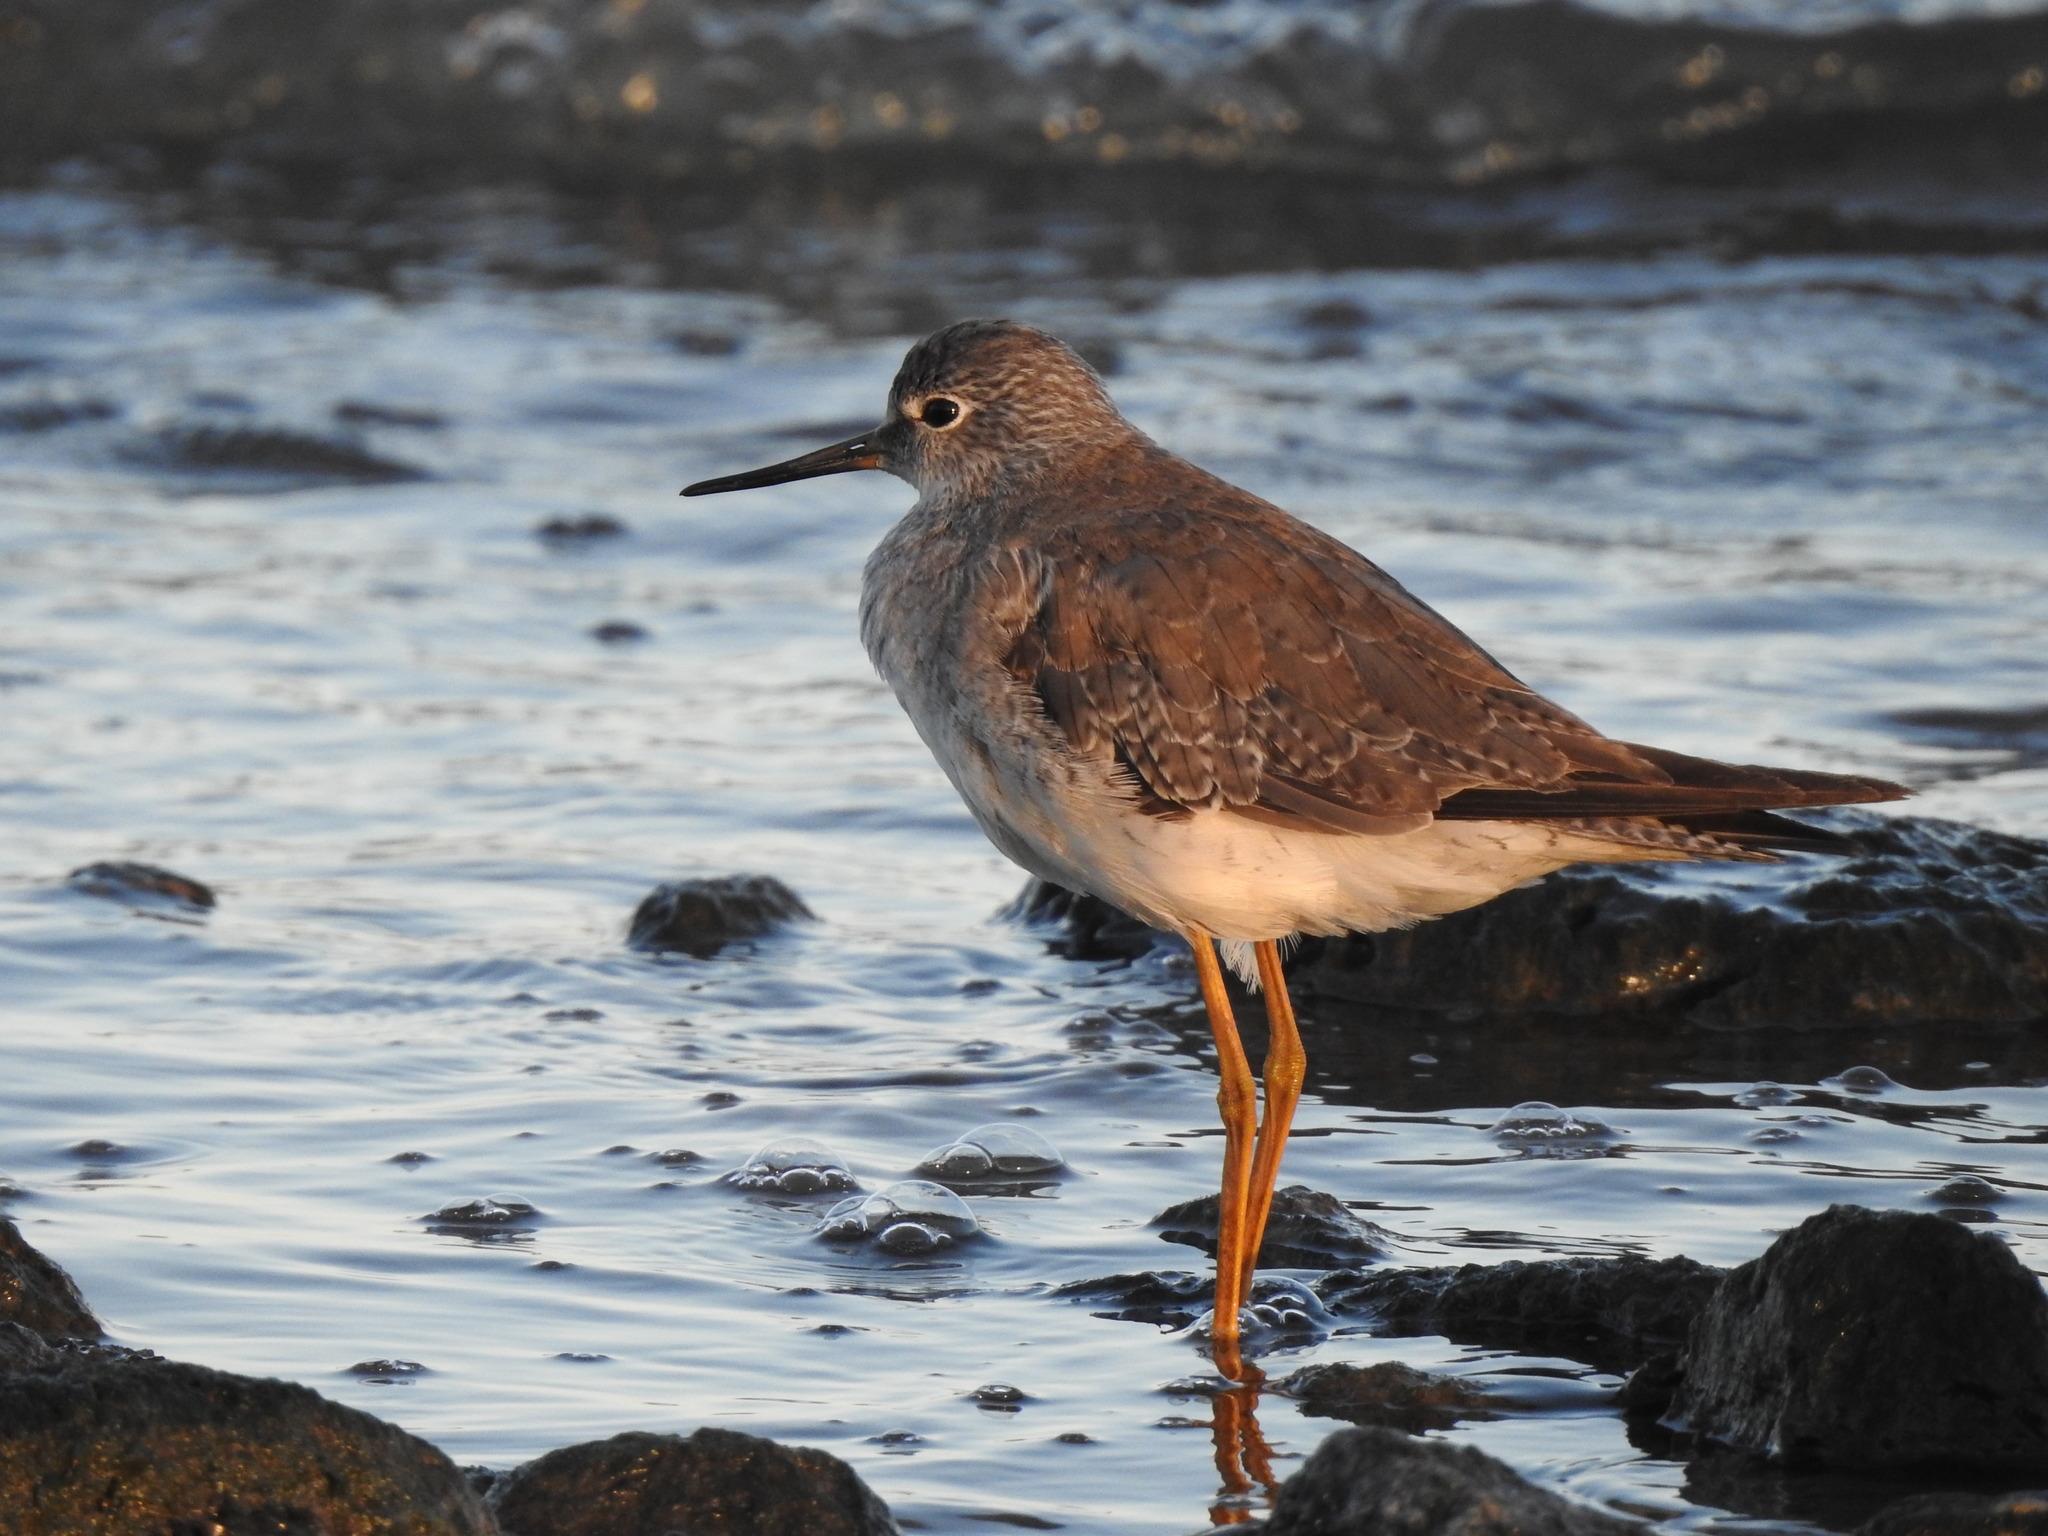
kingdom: Animalia
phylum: Chordata
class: Aves
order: Charadriiformes
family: Scolopacidae
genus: Tringa
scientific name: Tringa melanoleuca
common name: Greater yellowlegs
